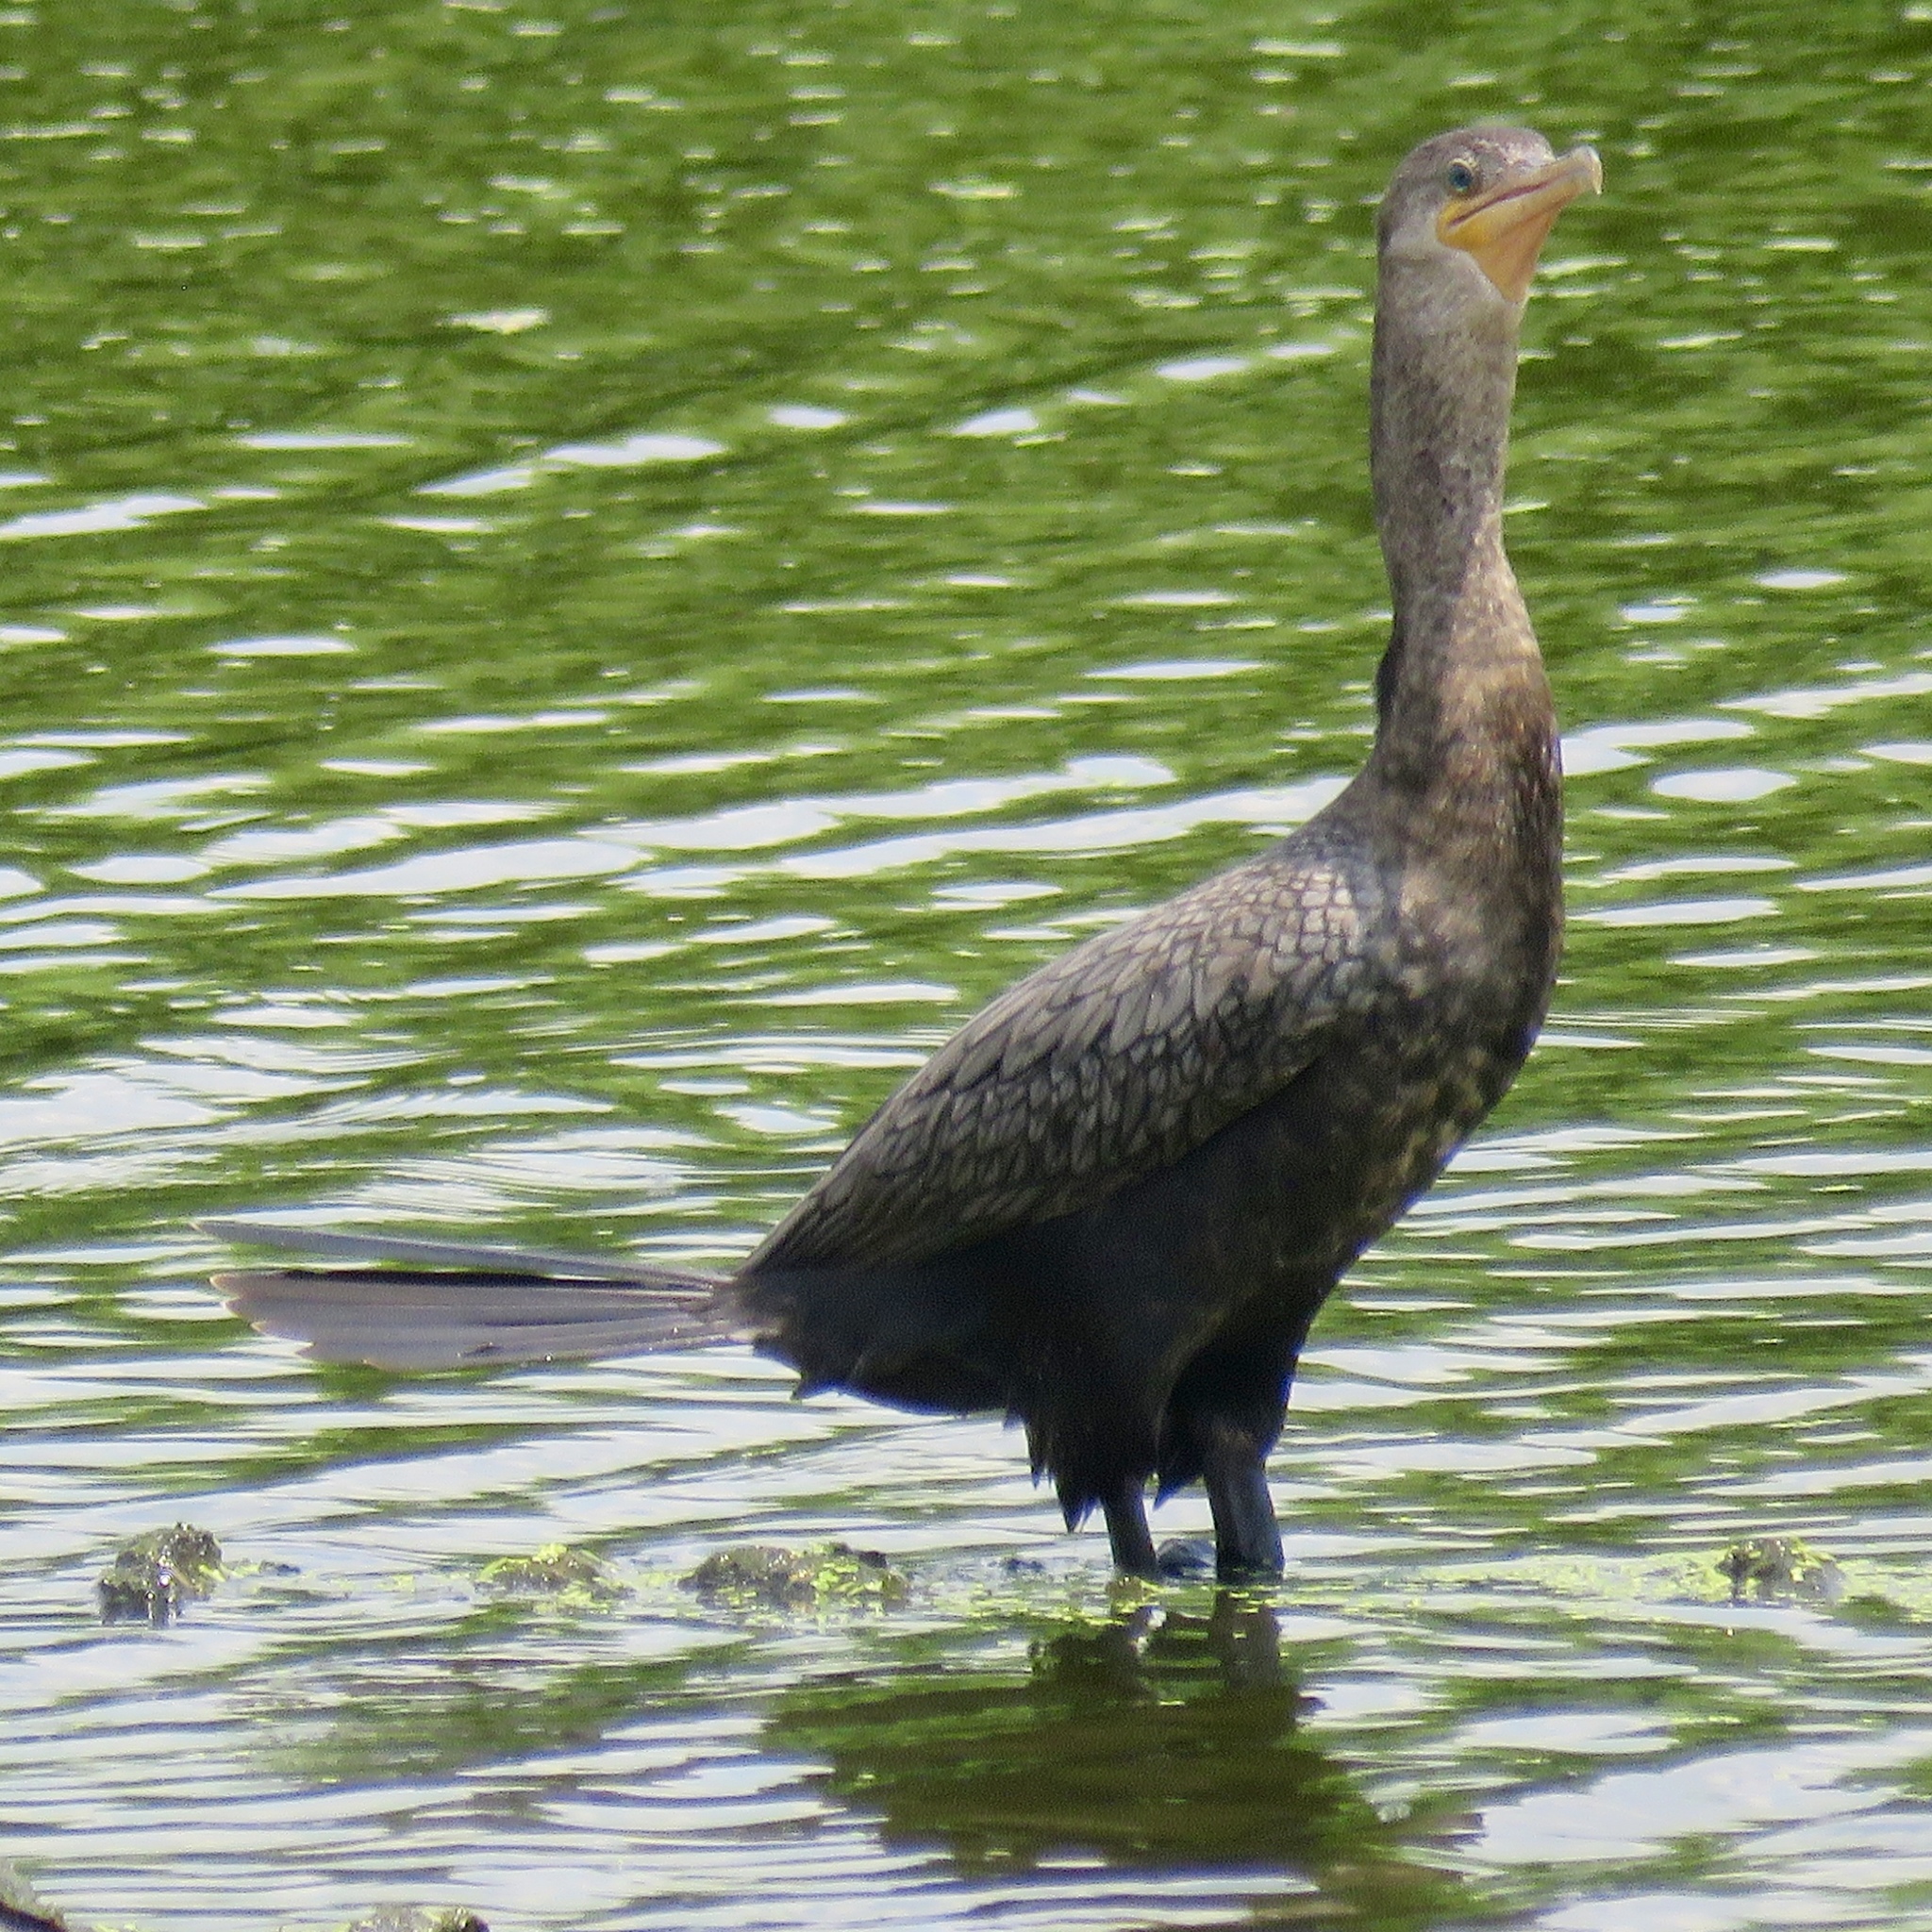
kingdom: Animalia
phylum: Chordata
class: Aves
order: Suliformes
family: Phalacrocoracidae
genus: Phalacrocorax
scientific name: Phalacrocorax brasilianus
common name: Neotropic cormorant
